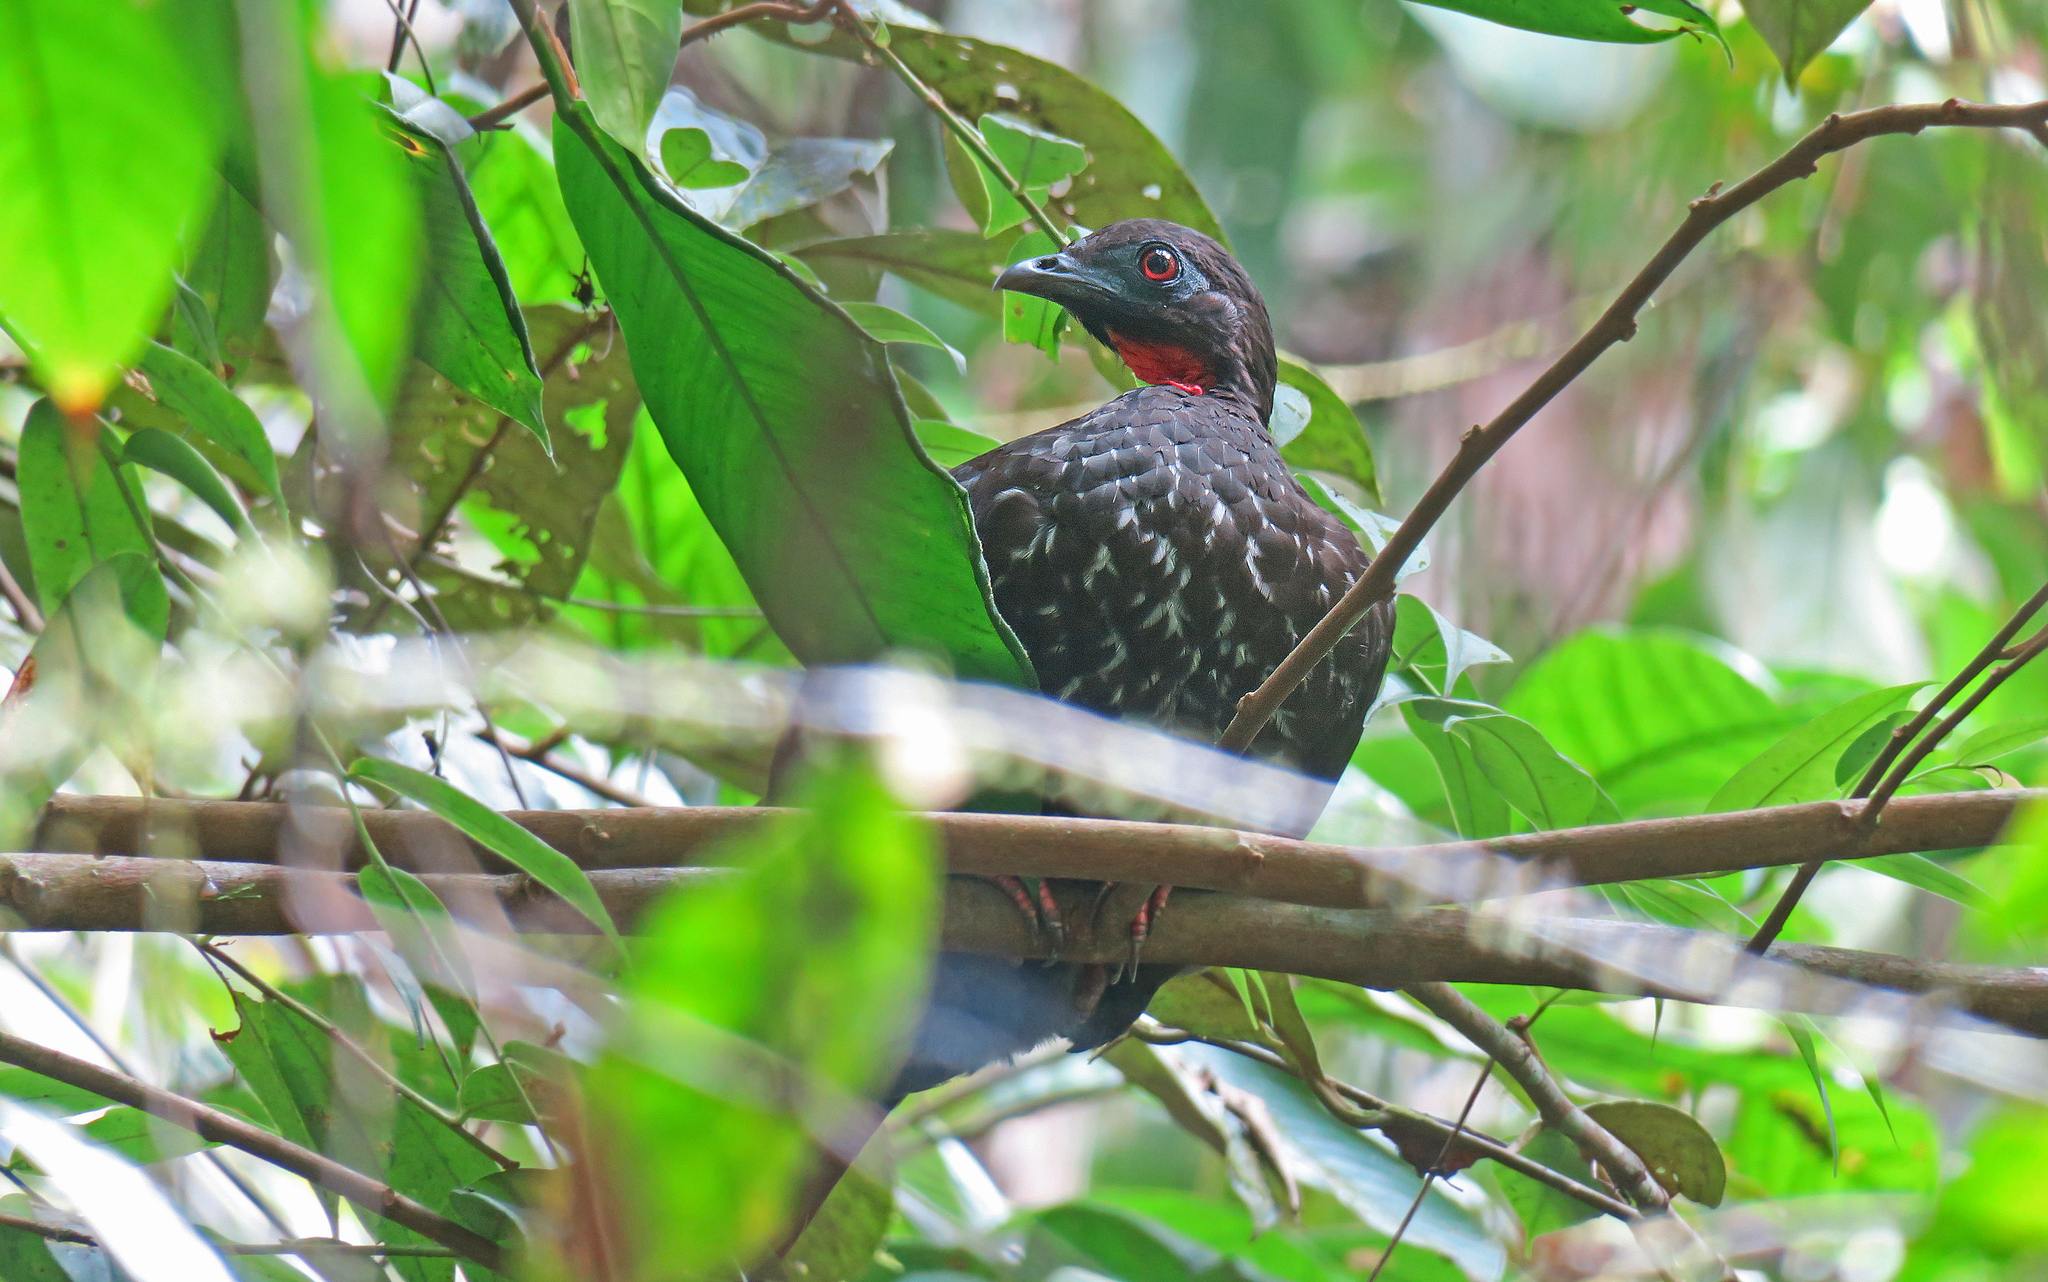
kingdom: Animalia
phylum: Chordata
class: Aves
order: Galliformes
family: Cracidae
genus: Penelope
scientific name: Penelope ortoni
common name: Baudo guan
